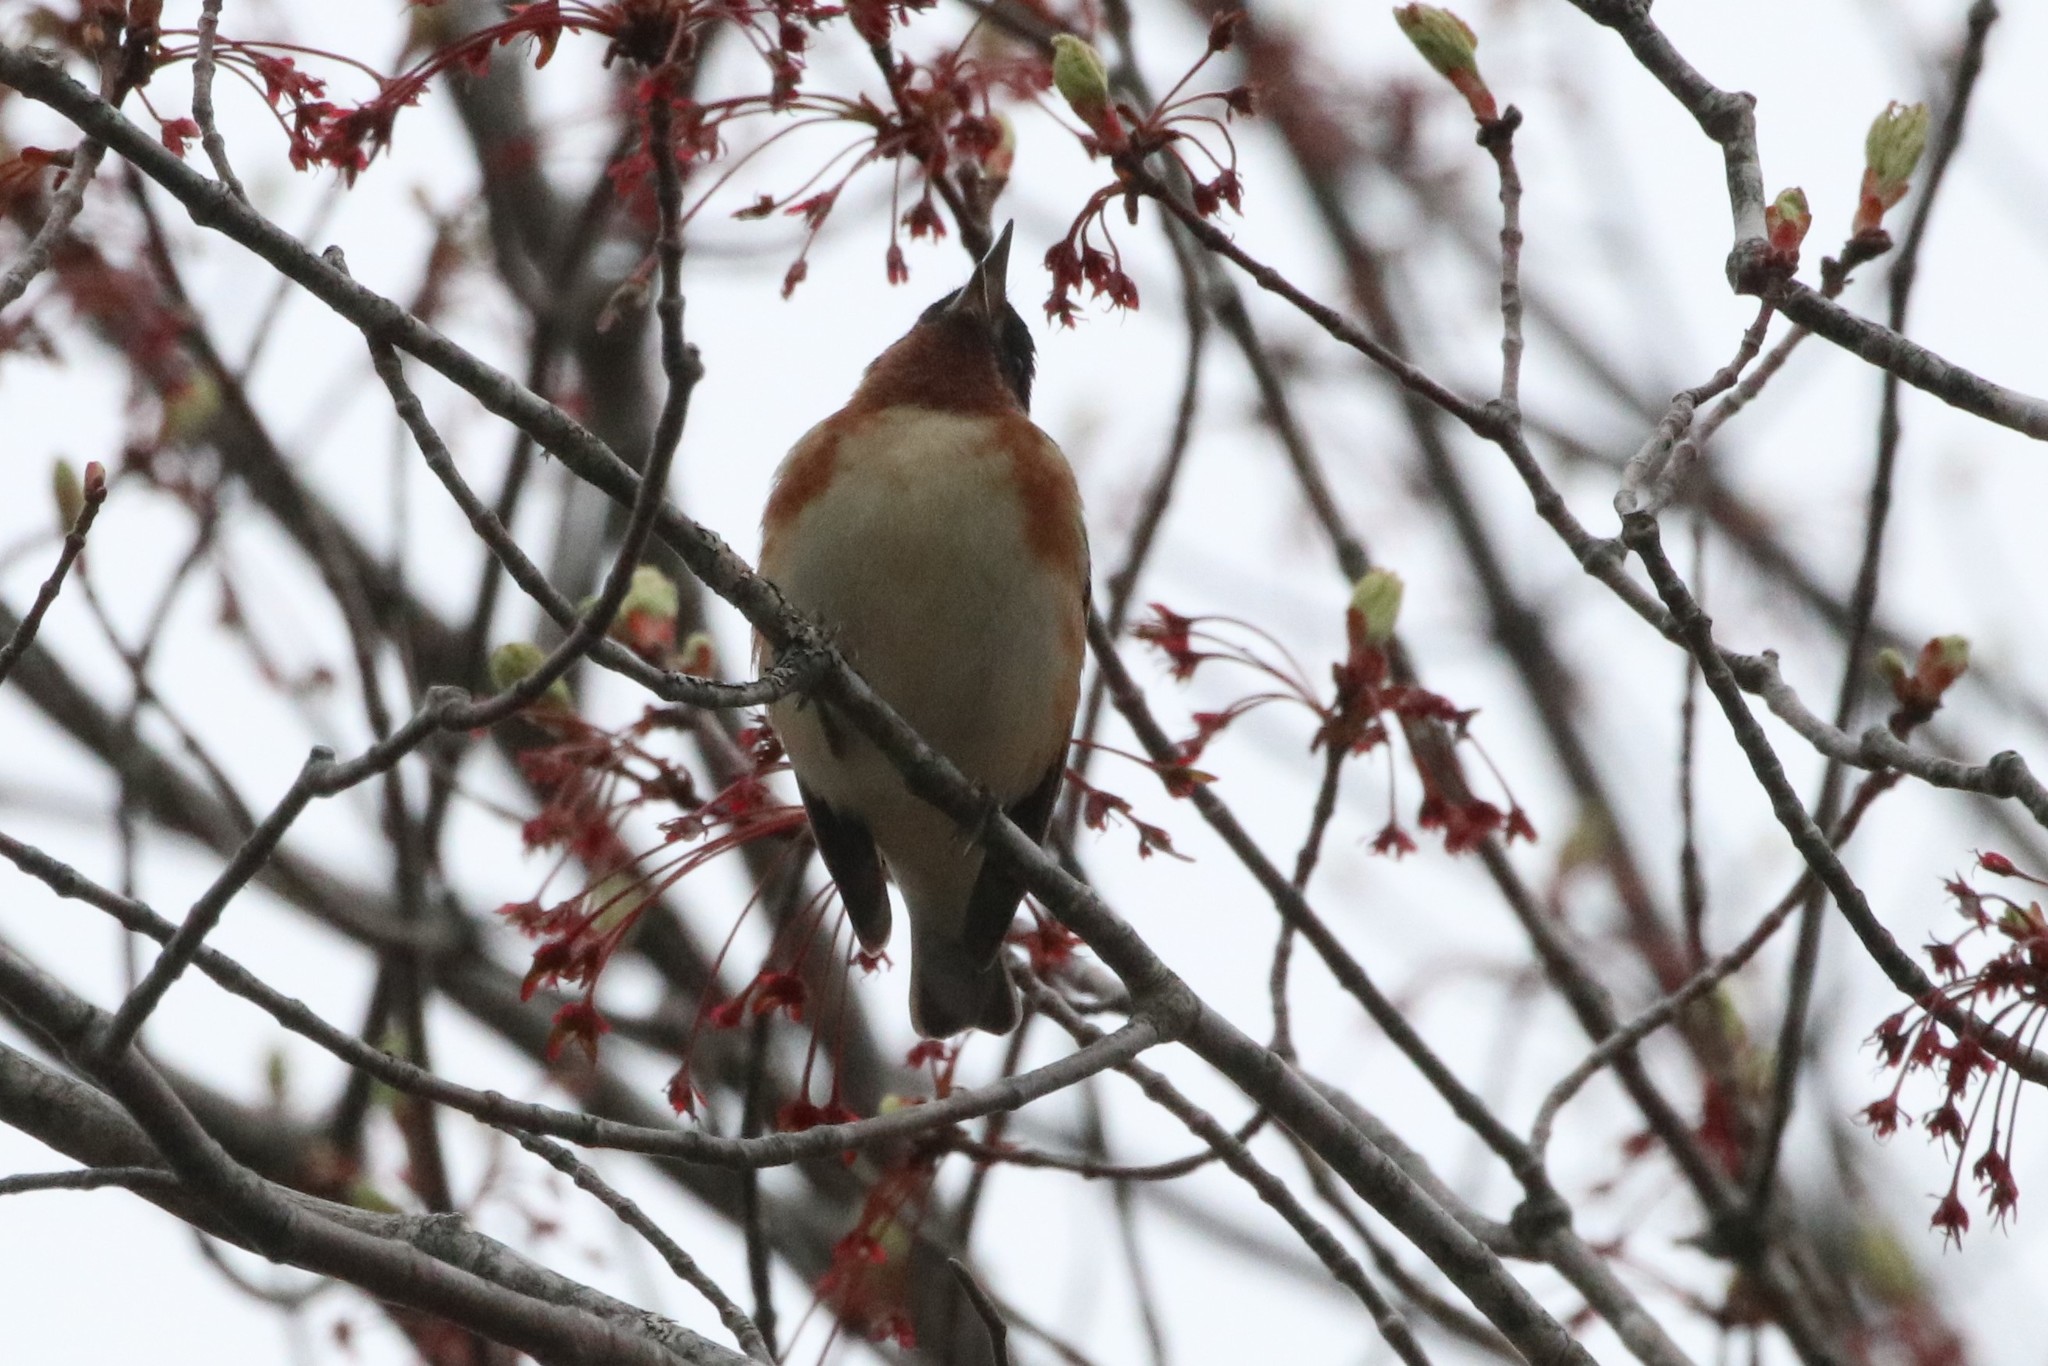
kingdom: Animalia
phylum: Chordata
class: Aves
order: Passeriformes
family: Parulidae
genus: Setophaga
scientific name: Setophaga castanea
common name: Bay-breasted warbler
